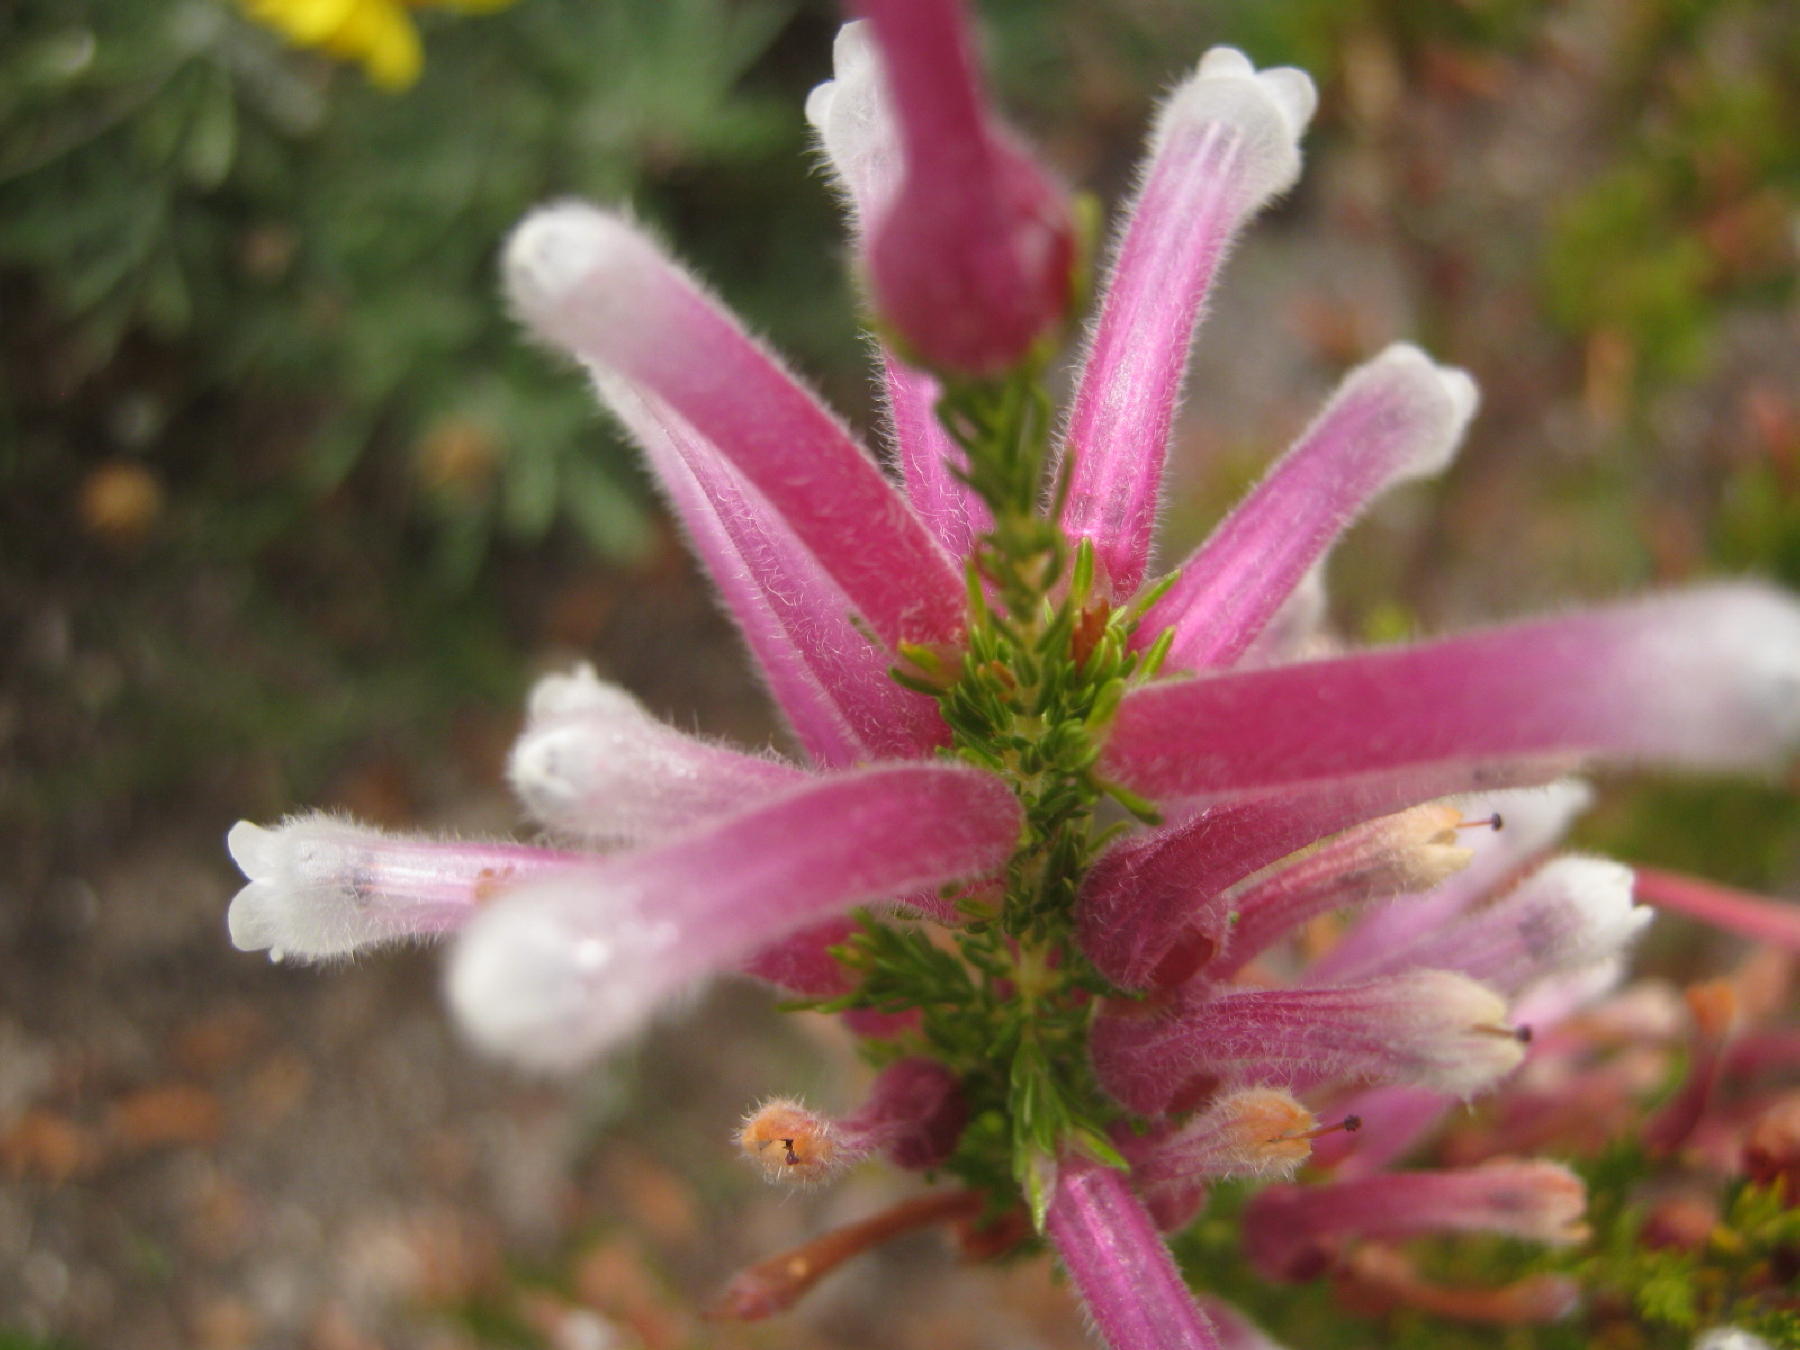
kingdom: Plantae
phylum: Tracheophyta
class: Magnoliopsida
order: Ericales
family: Ericaceae
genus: Erica
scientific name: Erica perspicua
